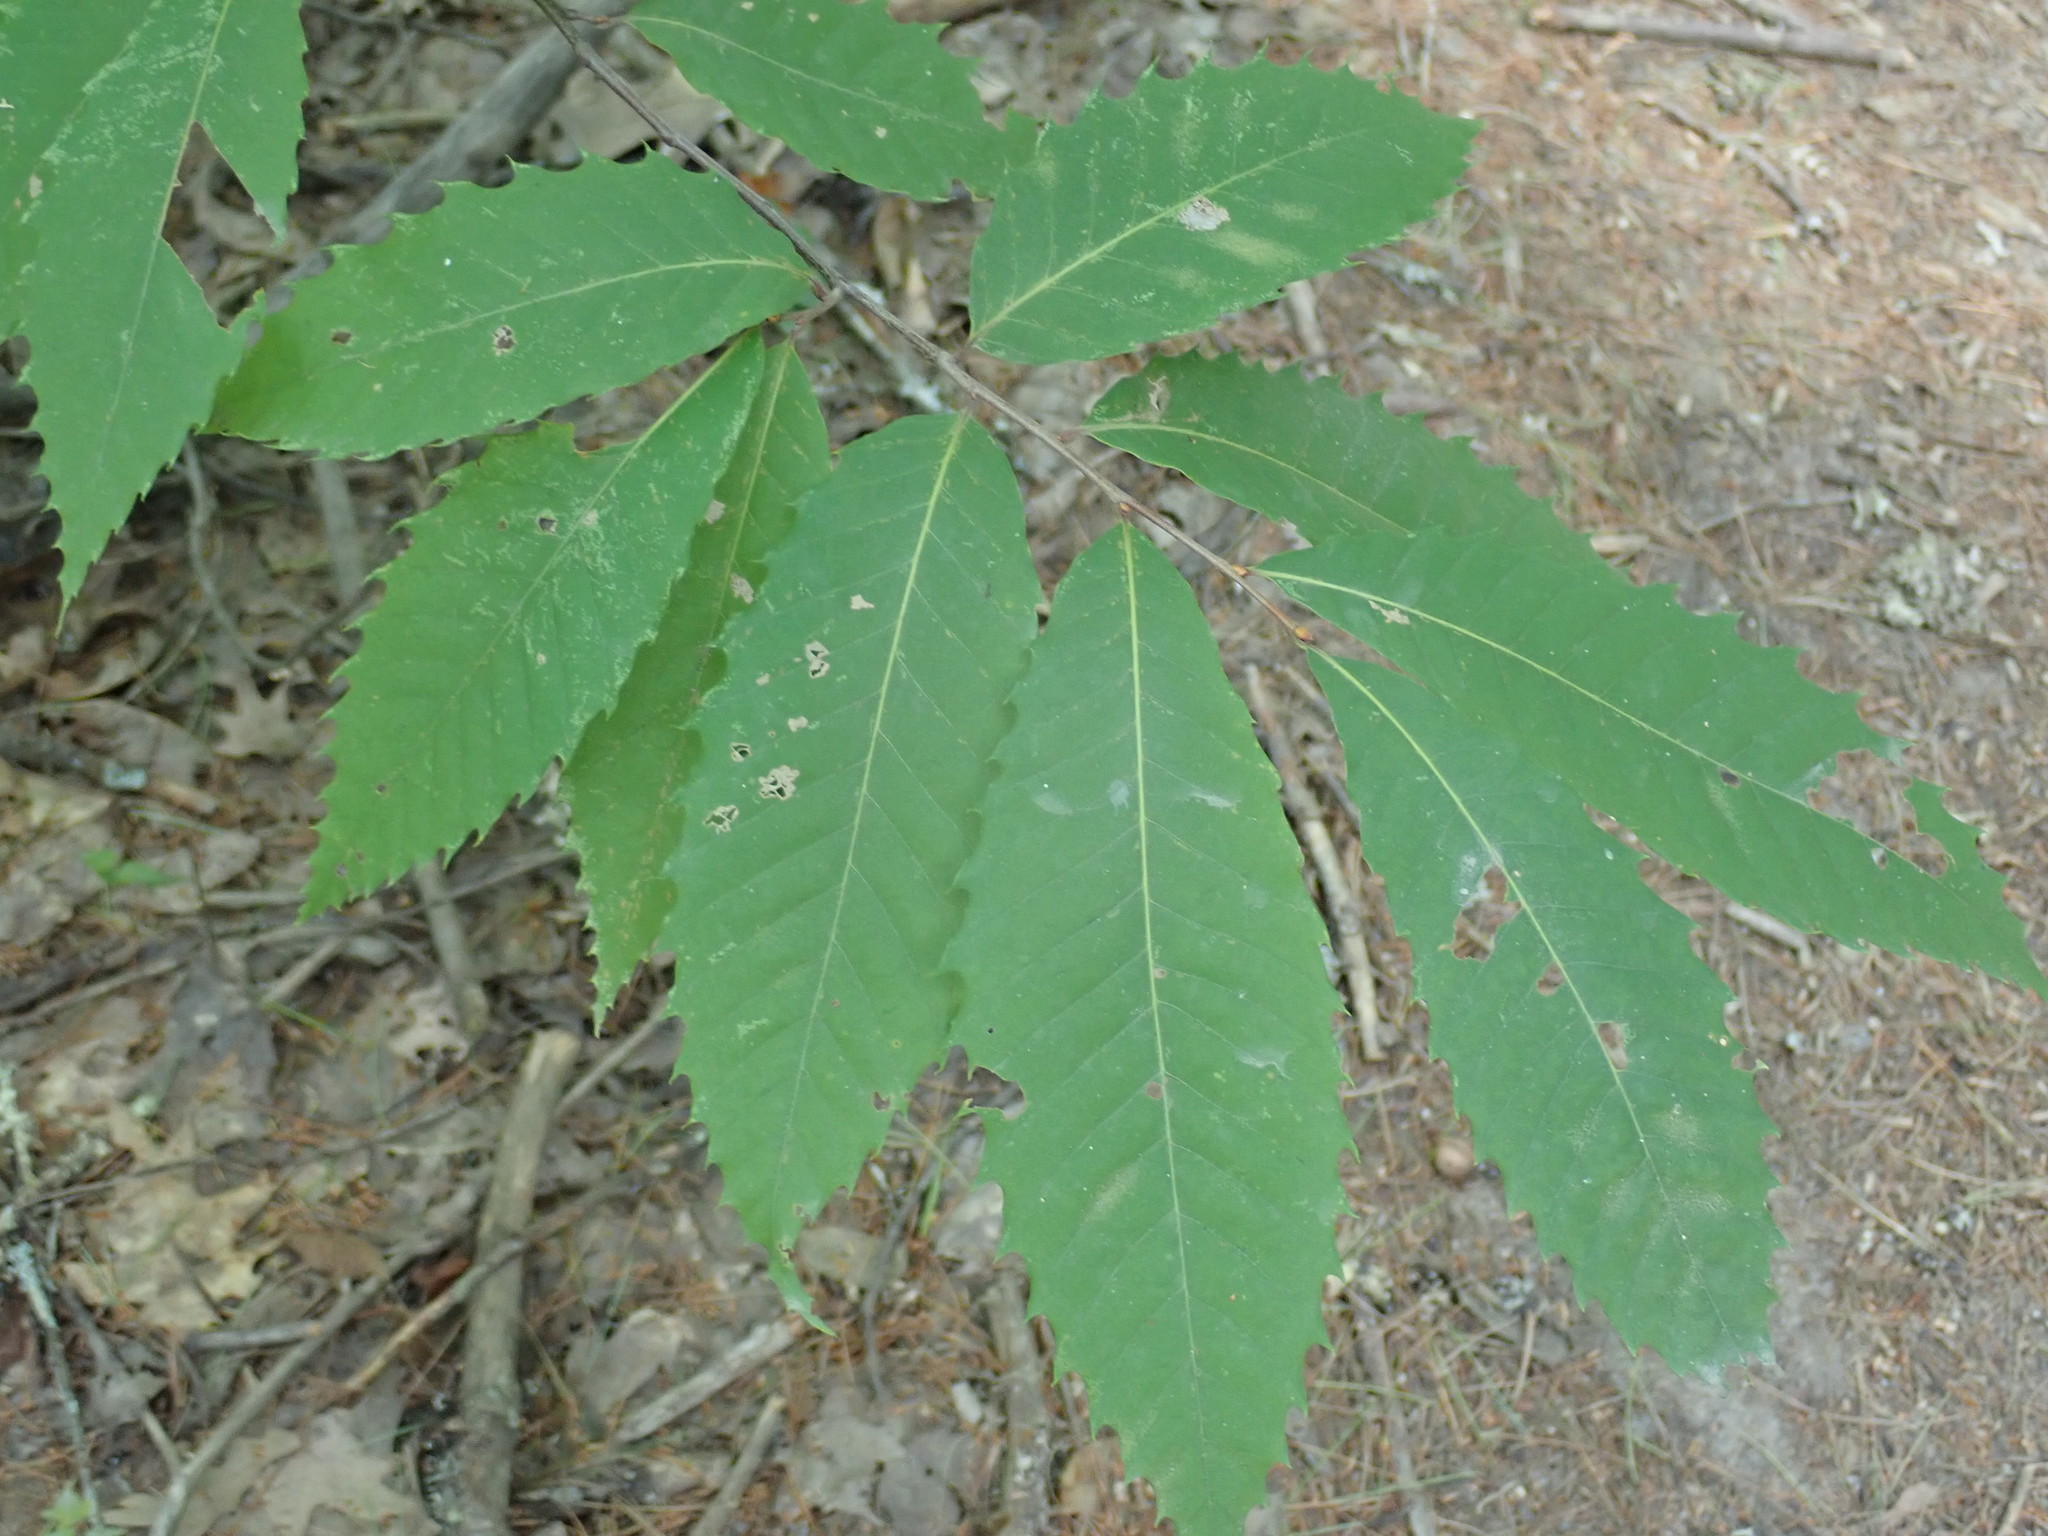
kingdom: Plantae
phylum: Tracheophyta
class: Magnoliopsida
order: Fagales
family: Fagaceae
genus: Castanea
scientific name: Castanea dentata
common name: American chestnut
